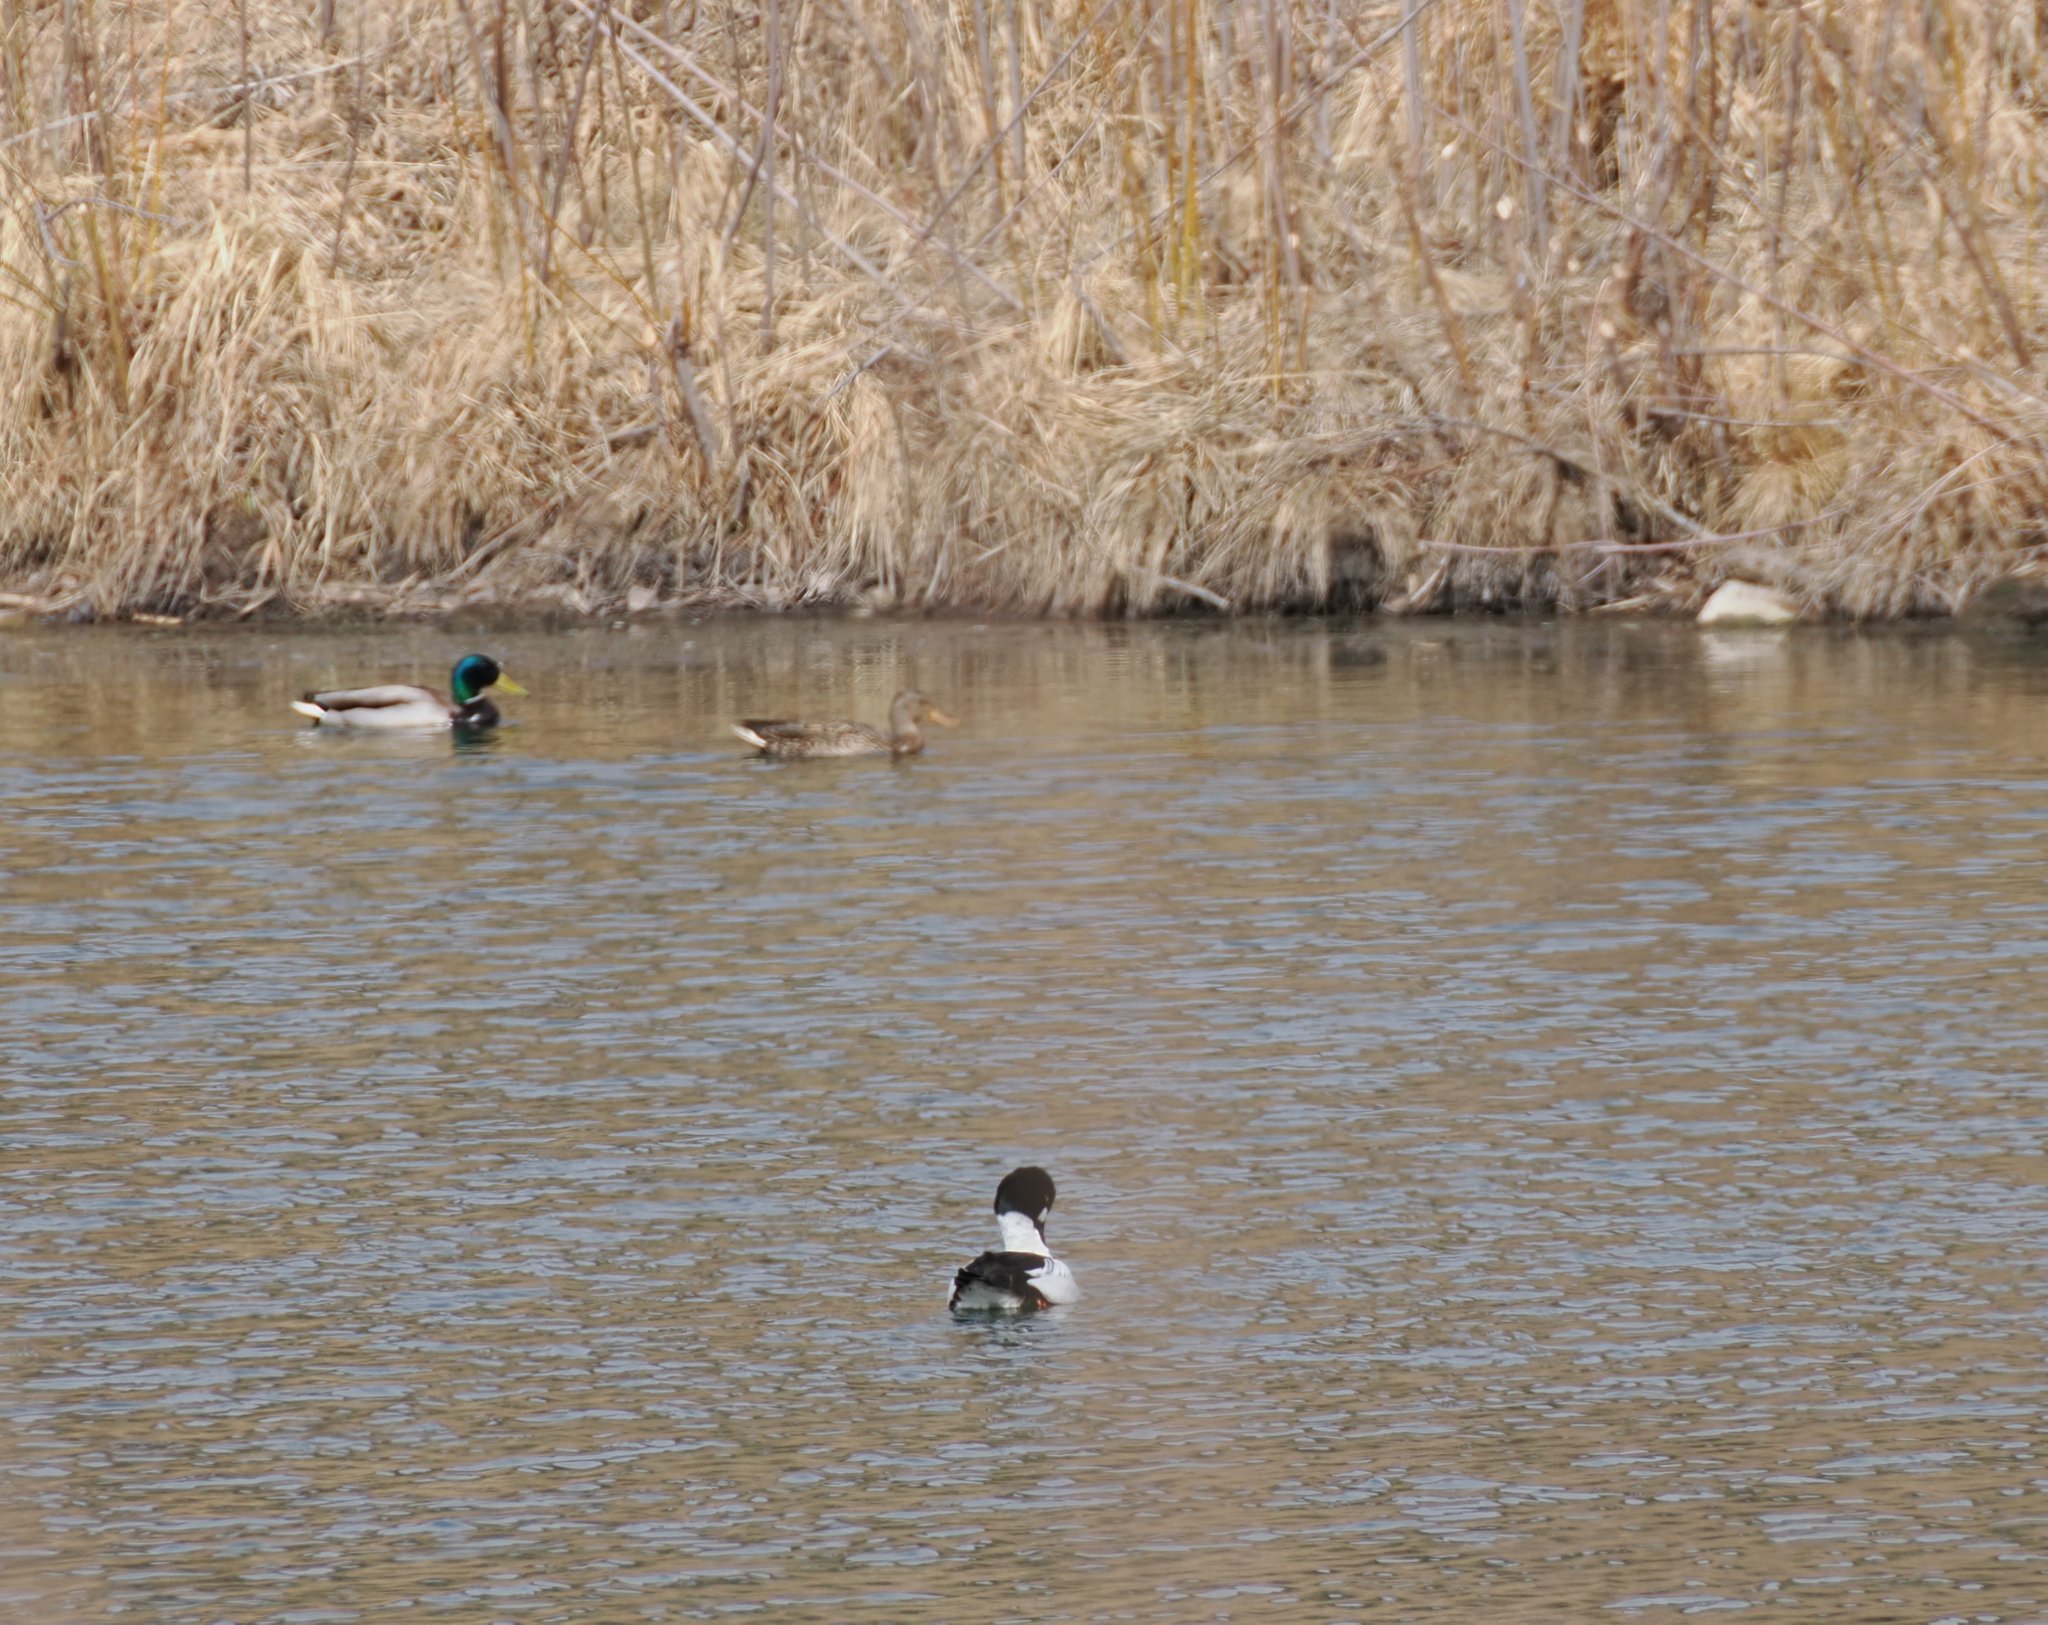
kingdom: Animalia
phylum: Chordata
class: Aves
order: Anseriformes
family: Anatidae
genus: Bucephala
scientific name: Bucephala clangula
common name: Common goldeneye
